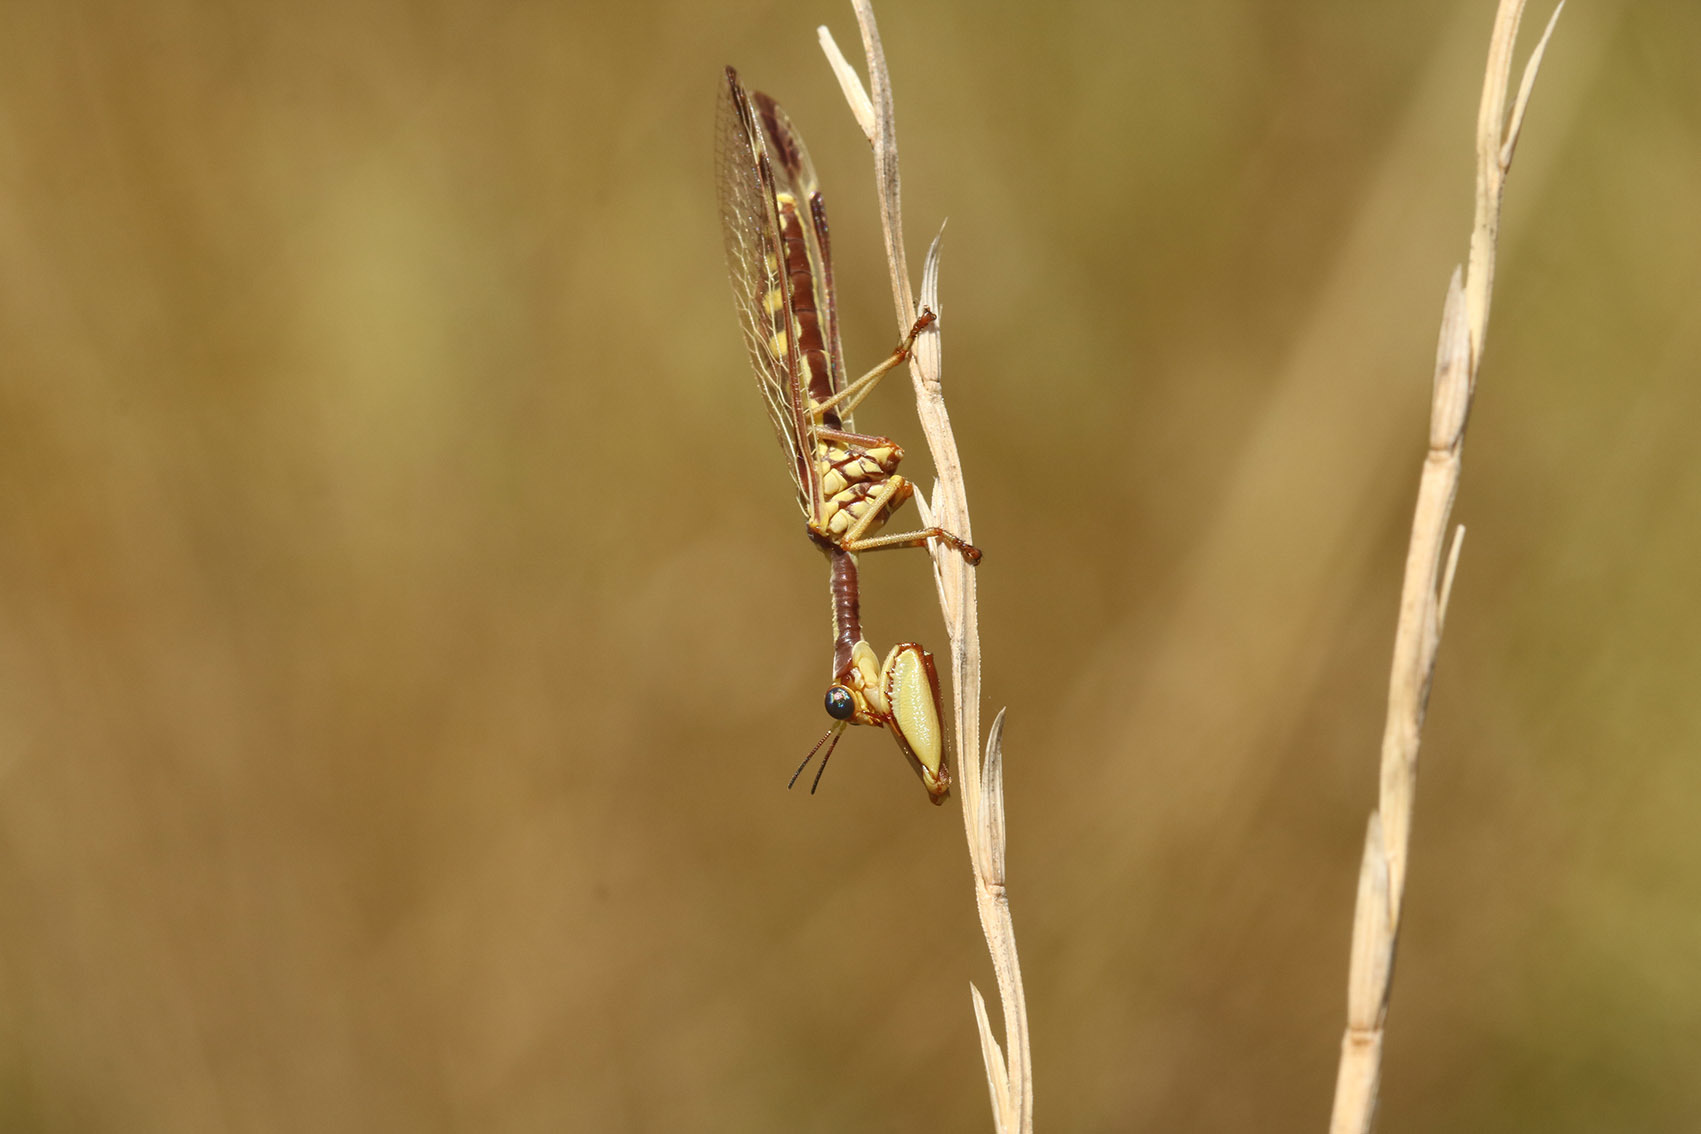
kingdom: Animalia
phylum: Arthropoda
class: Insecta
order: Neuroptera
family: Mantispidae
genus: Paramantispa
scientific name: Paramantispa prolixa
